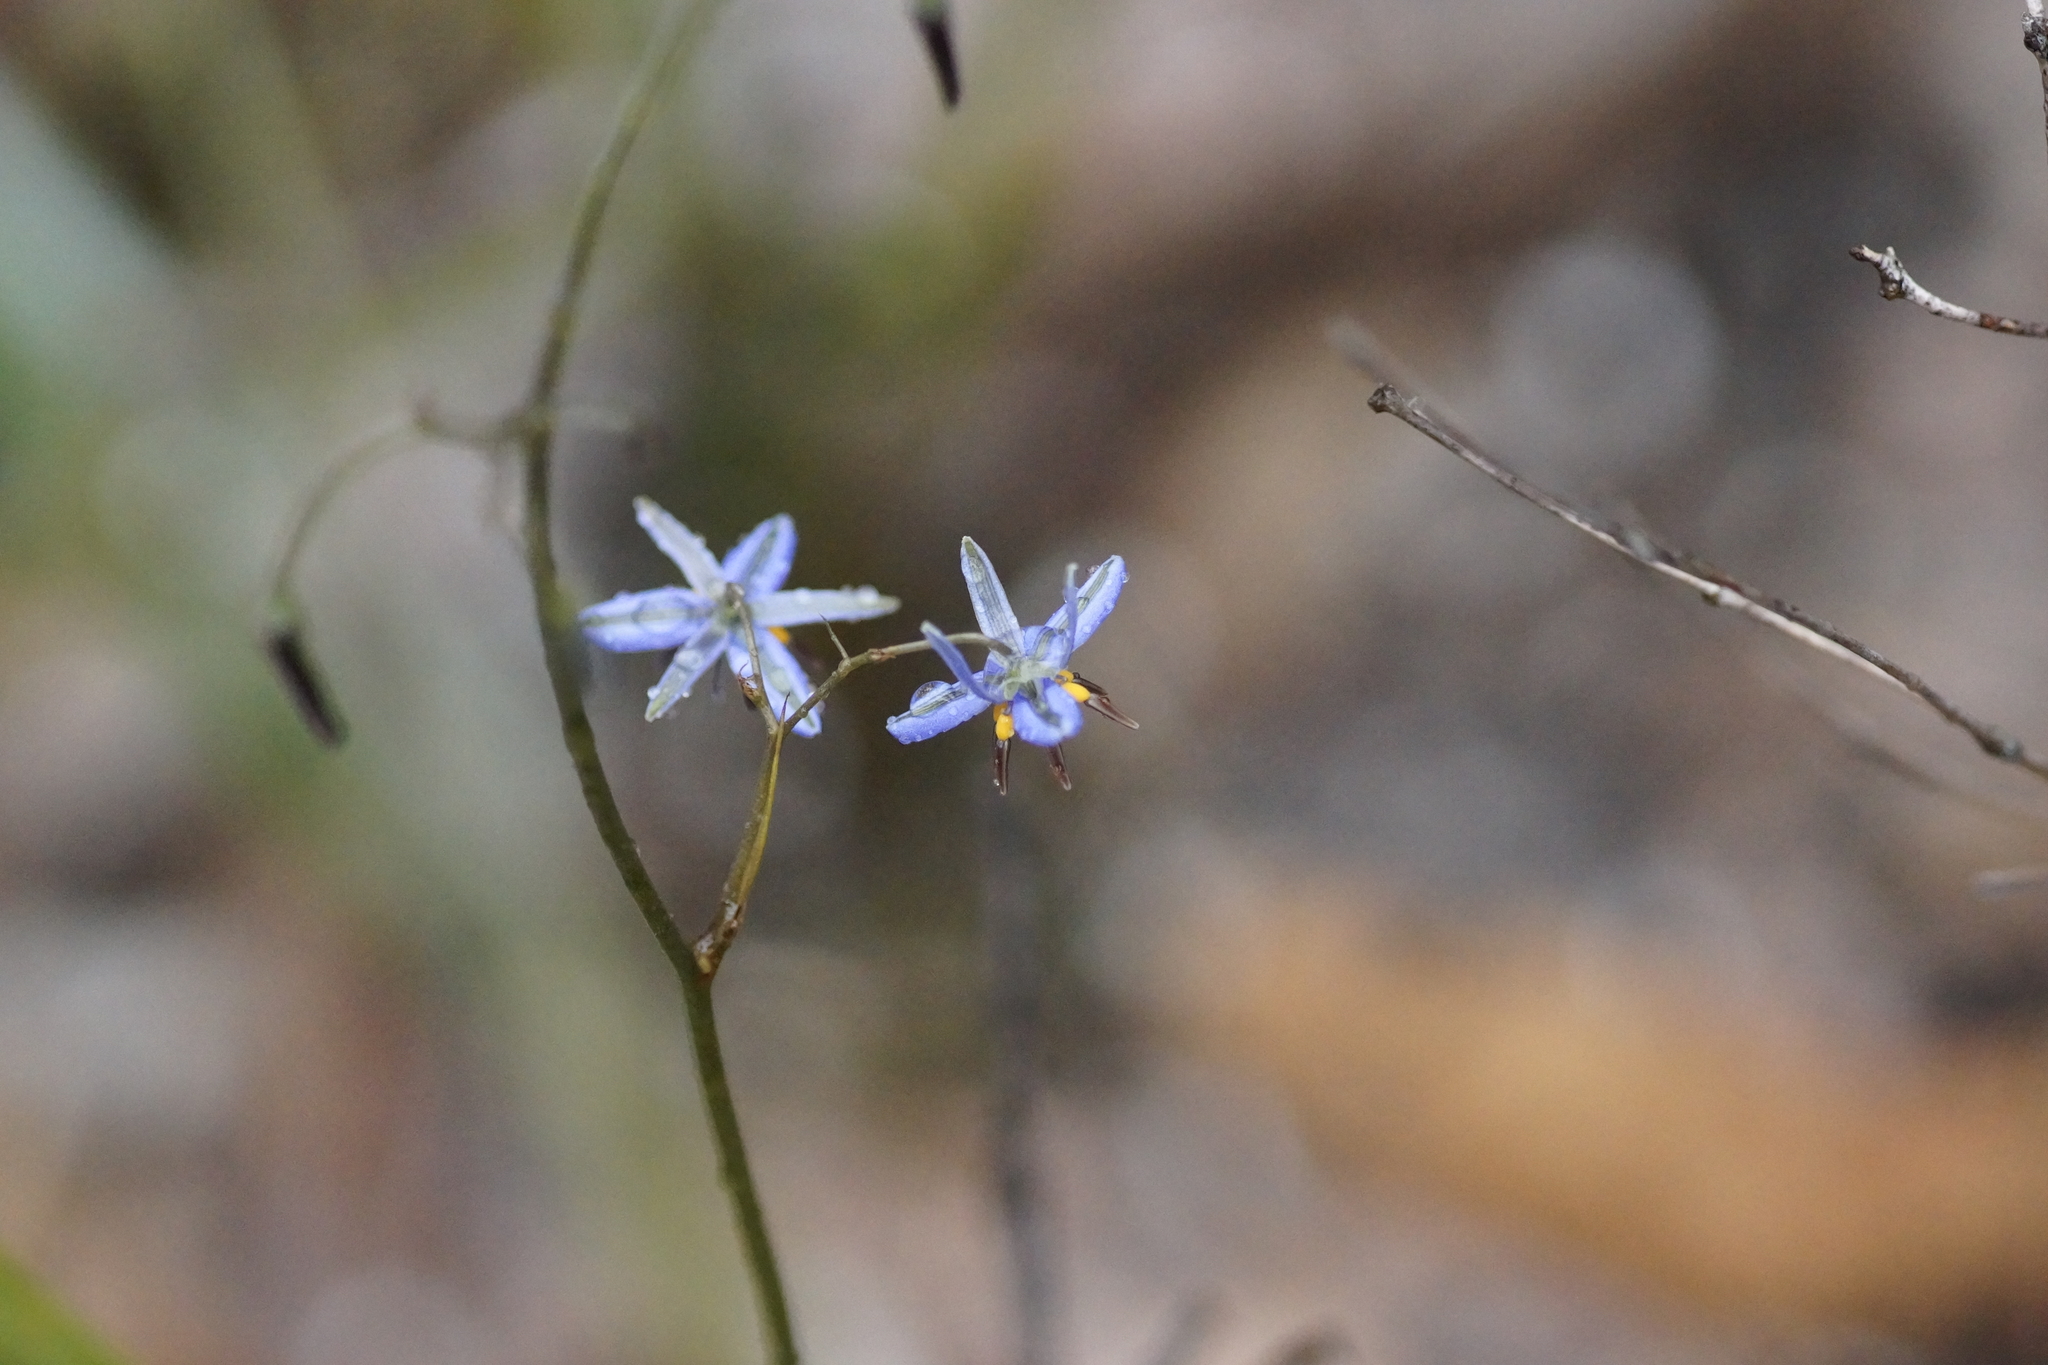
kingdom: Plantae
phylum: Tracheophyta
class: Liliopsida
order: Asparagales
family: Asphodelaceae
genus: Dianella
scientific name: Dianella revoluta
